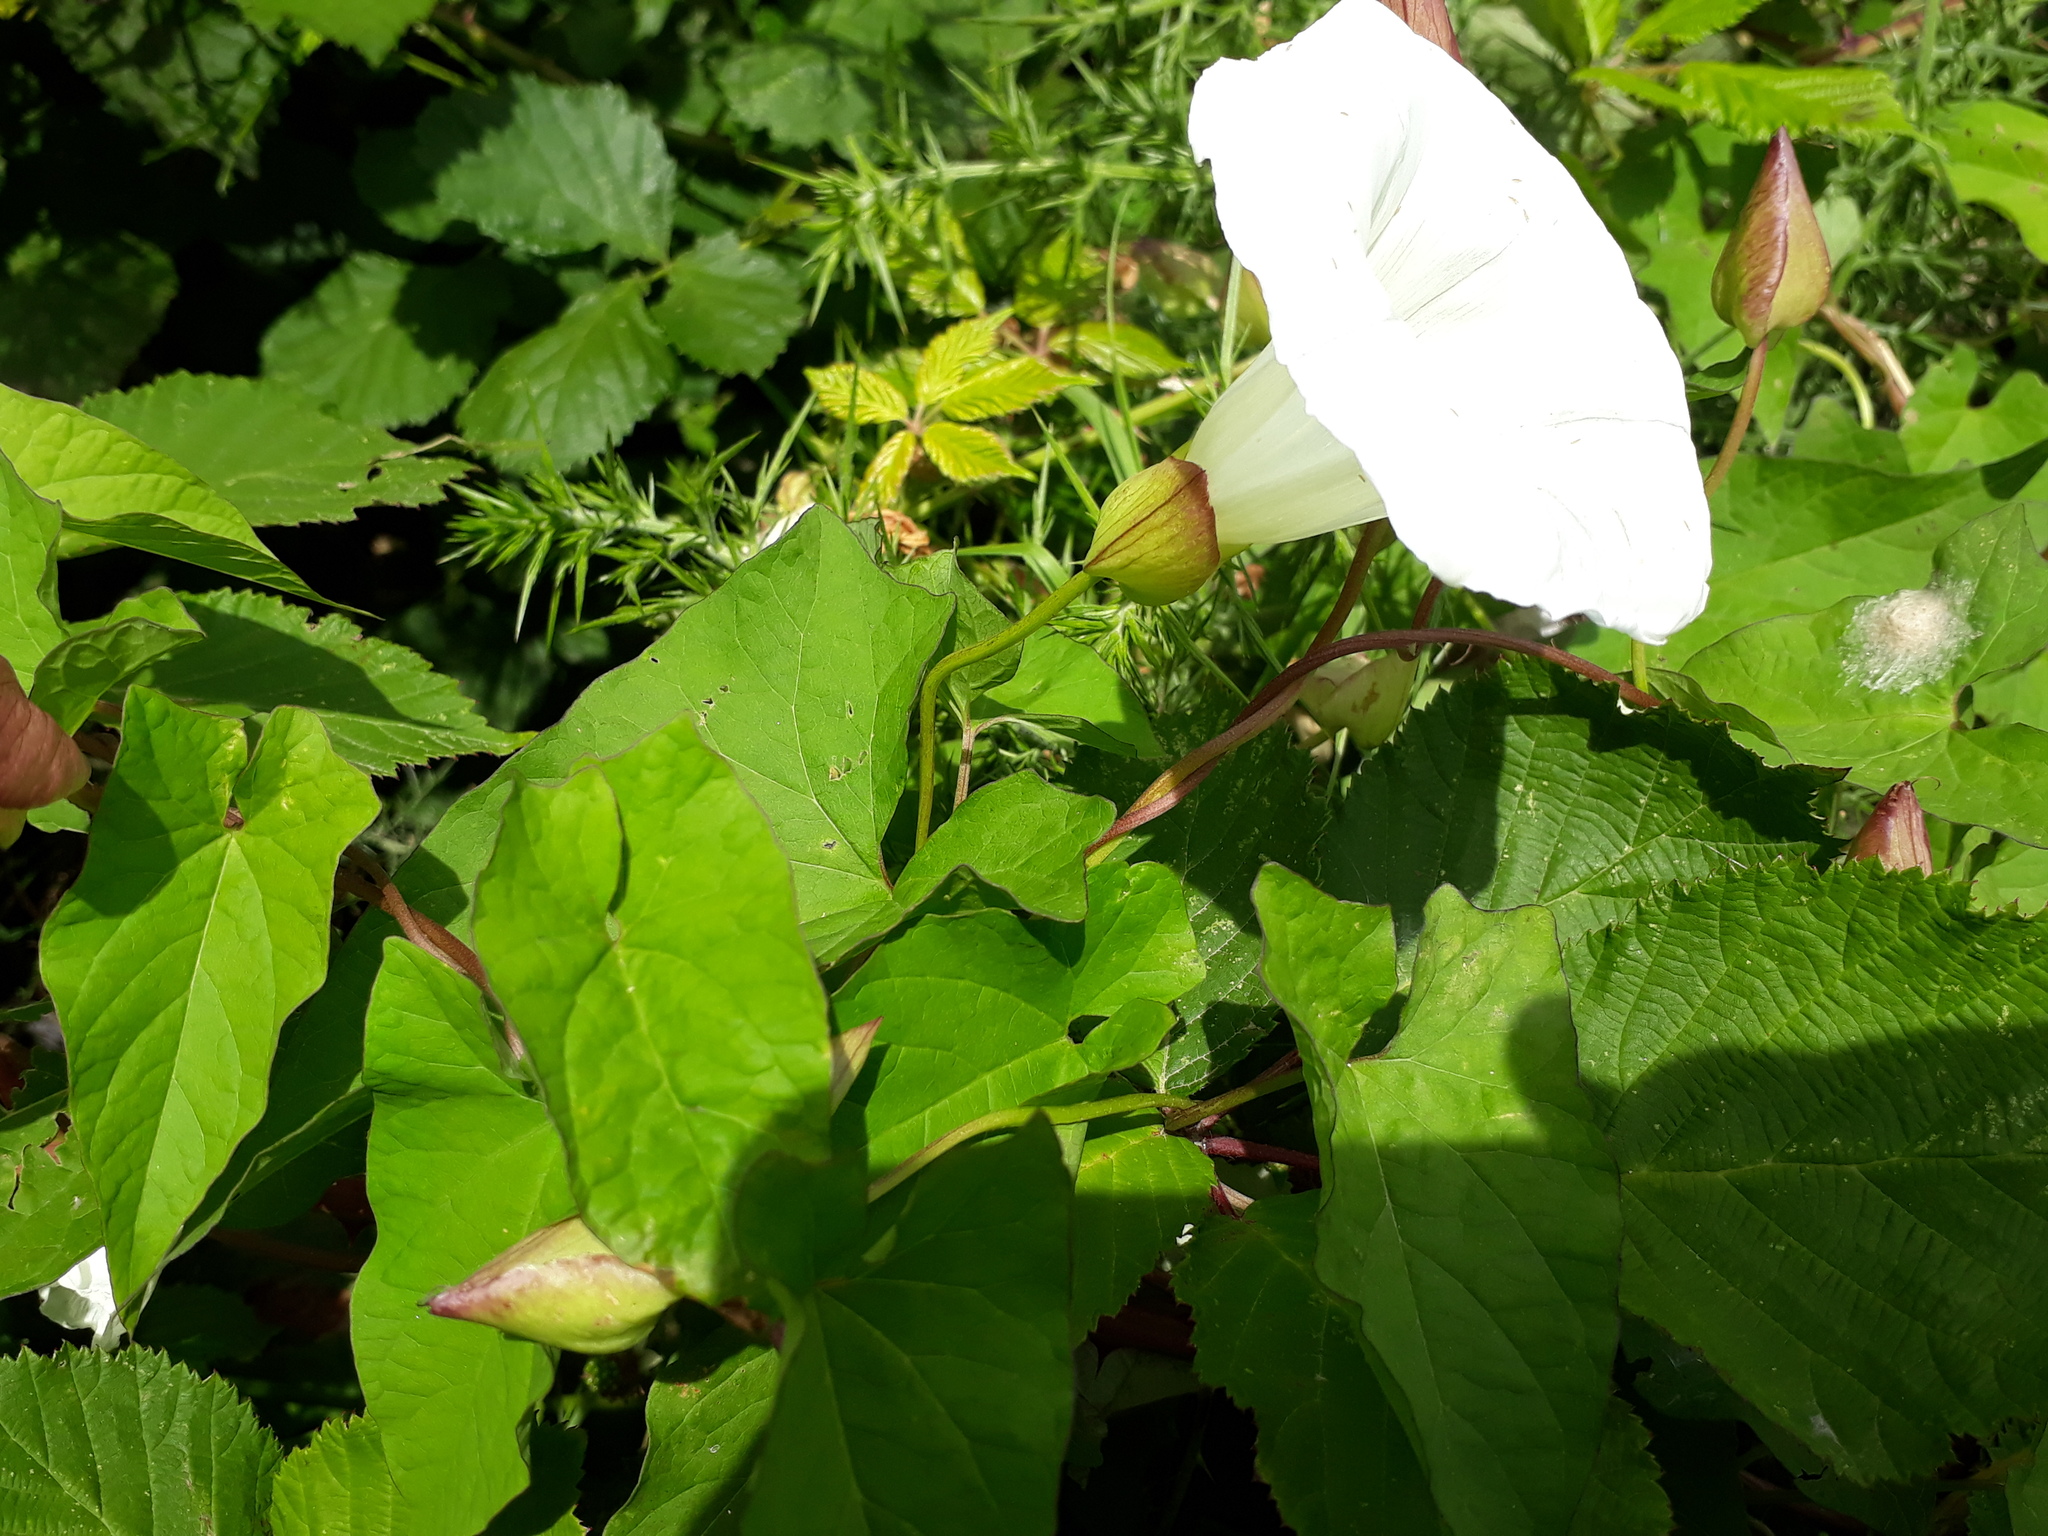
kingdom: Plantae
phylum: Tracheophyta
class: Magnoliopsida
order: Solanales
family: Convolvulaceae
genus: Calystegia
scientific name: Calystegia silvatica
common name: Large bindweed
